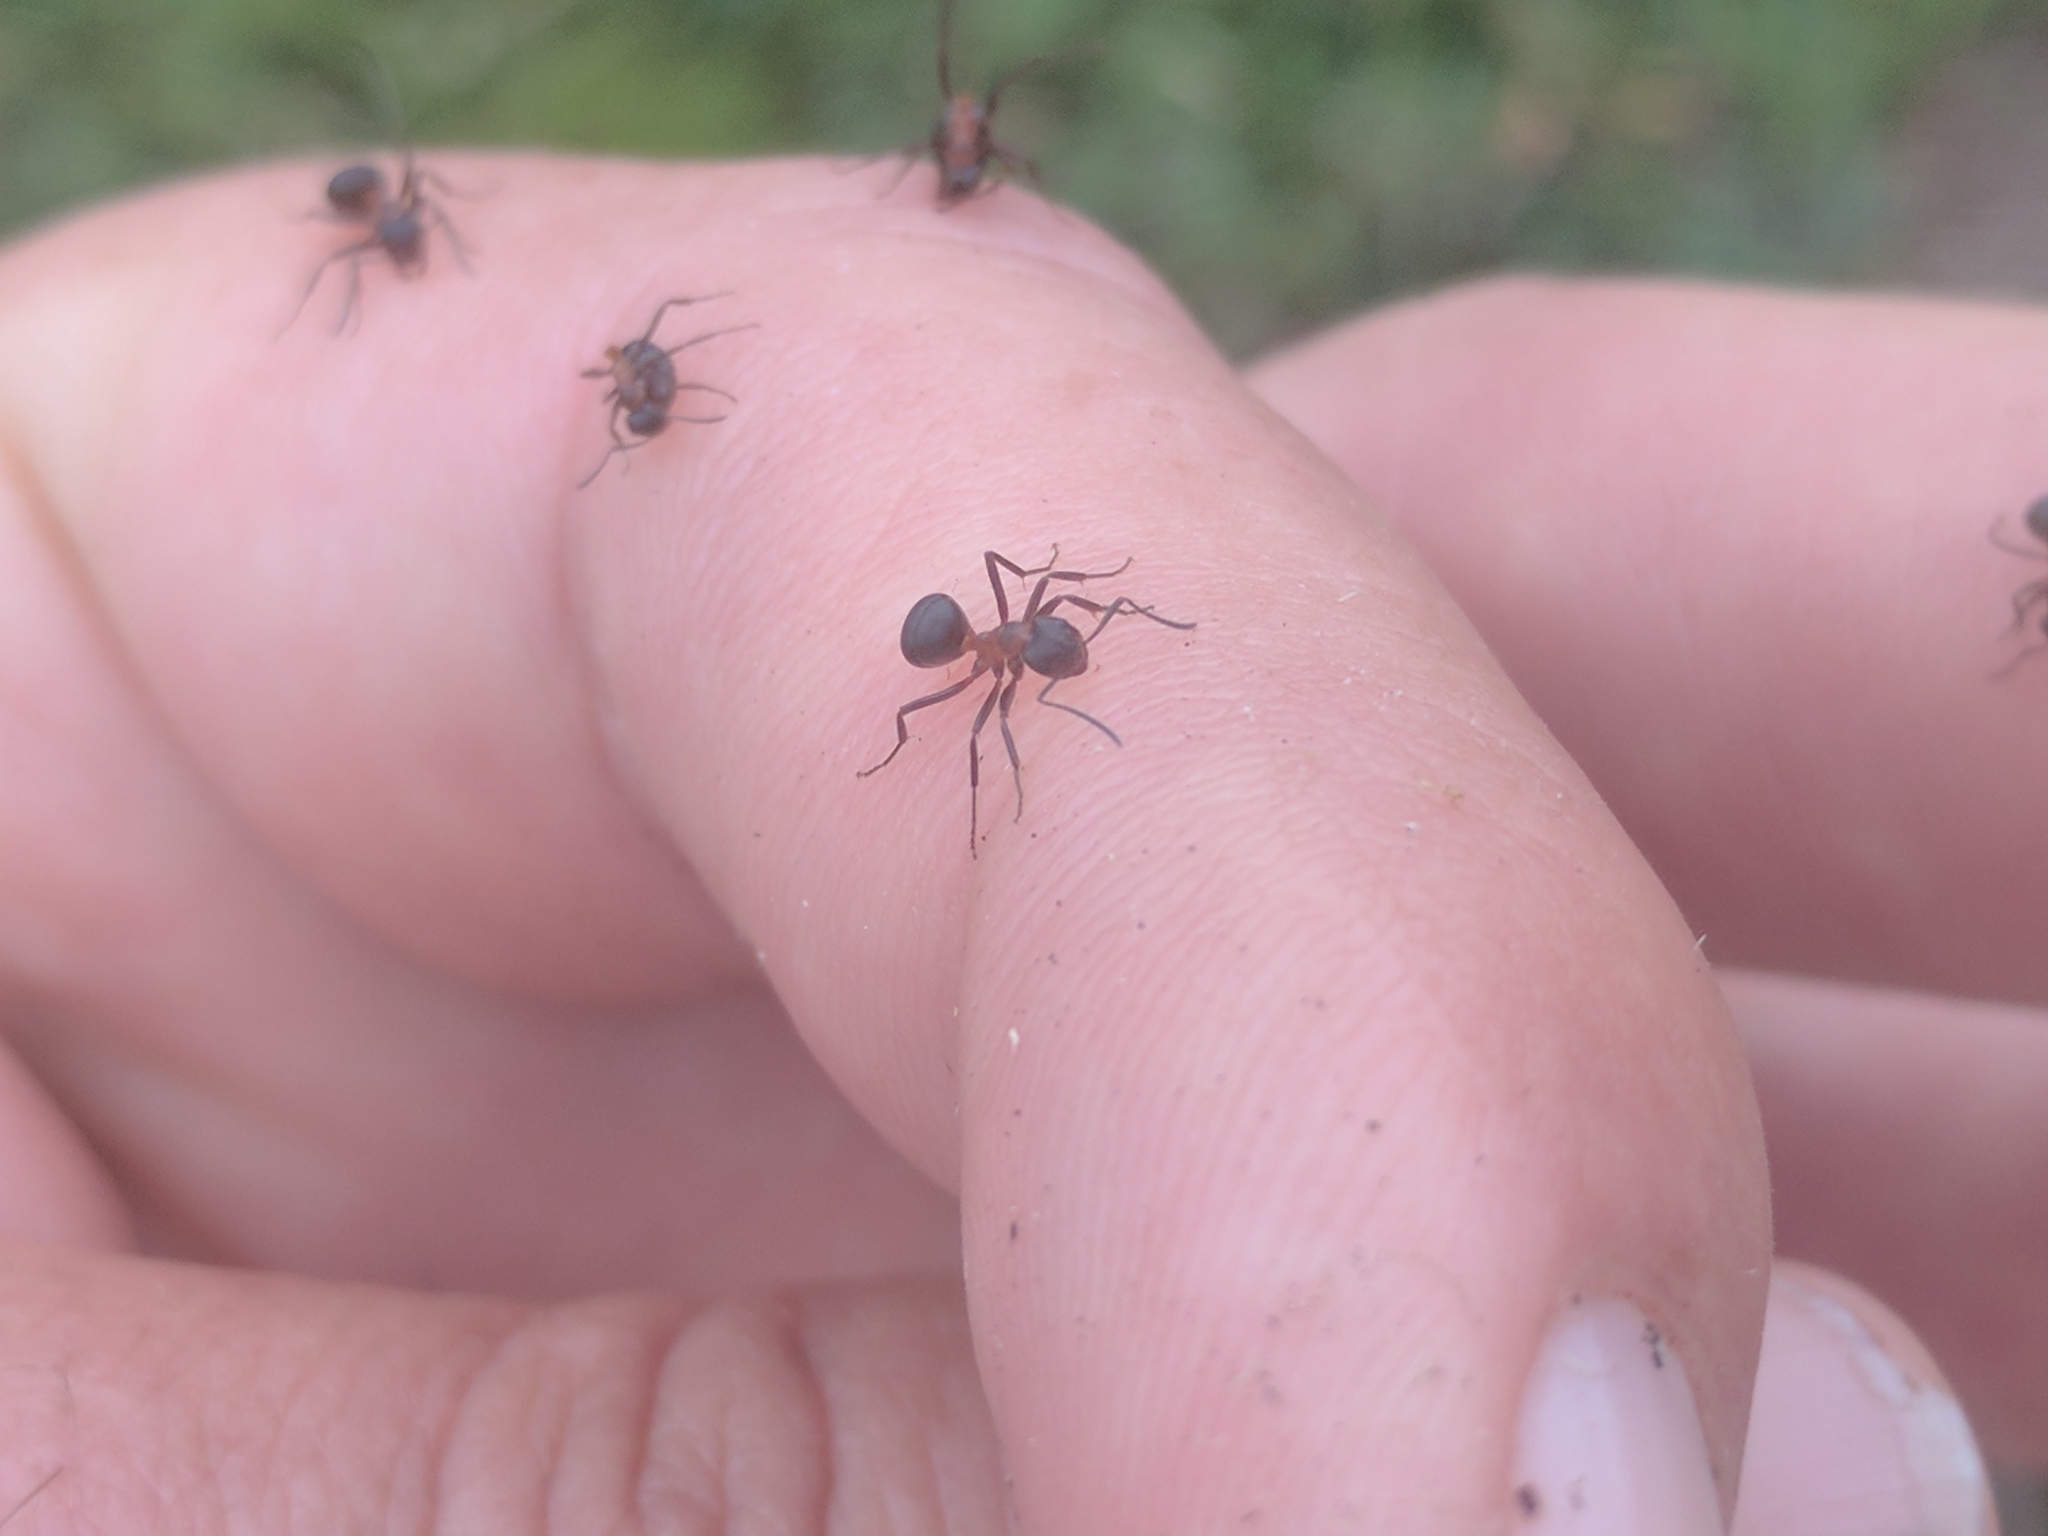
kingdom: Animalia
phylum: Arthropoda
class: Insecta
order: Hymenoptera
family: Formicidae
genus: Formica
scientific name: Formica exsecta
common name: Narrow headed ant
